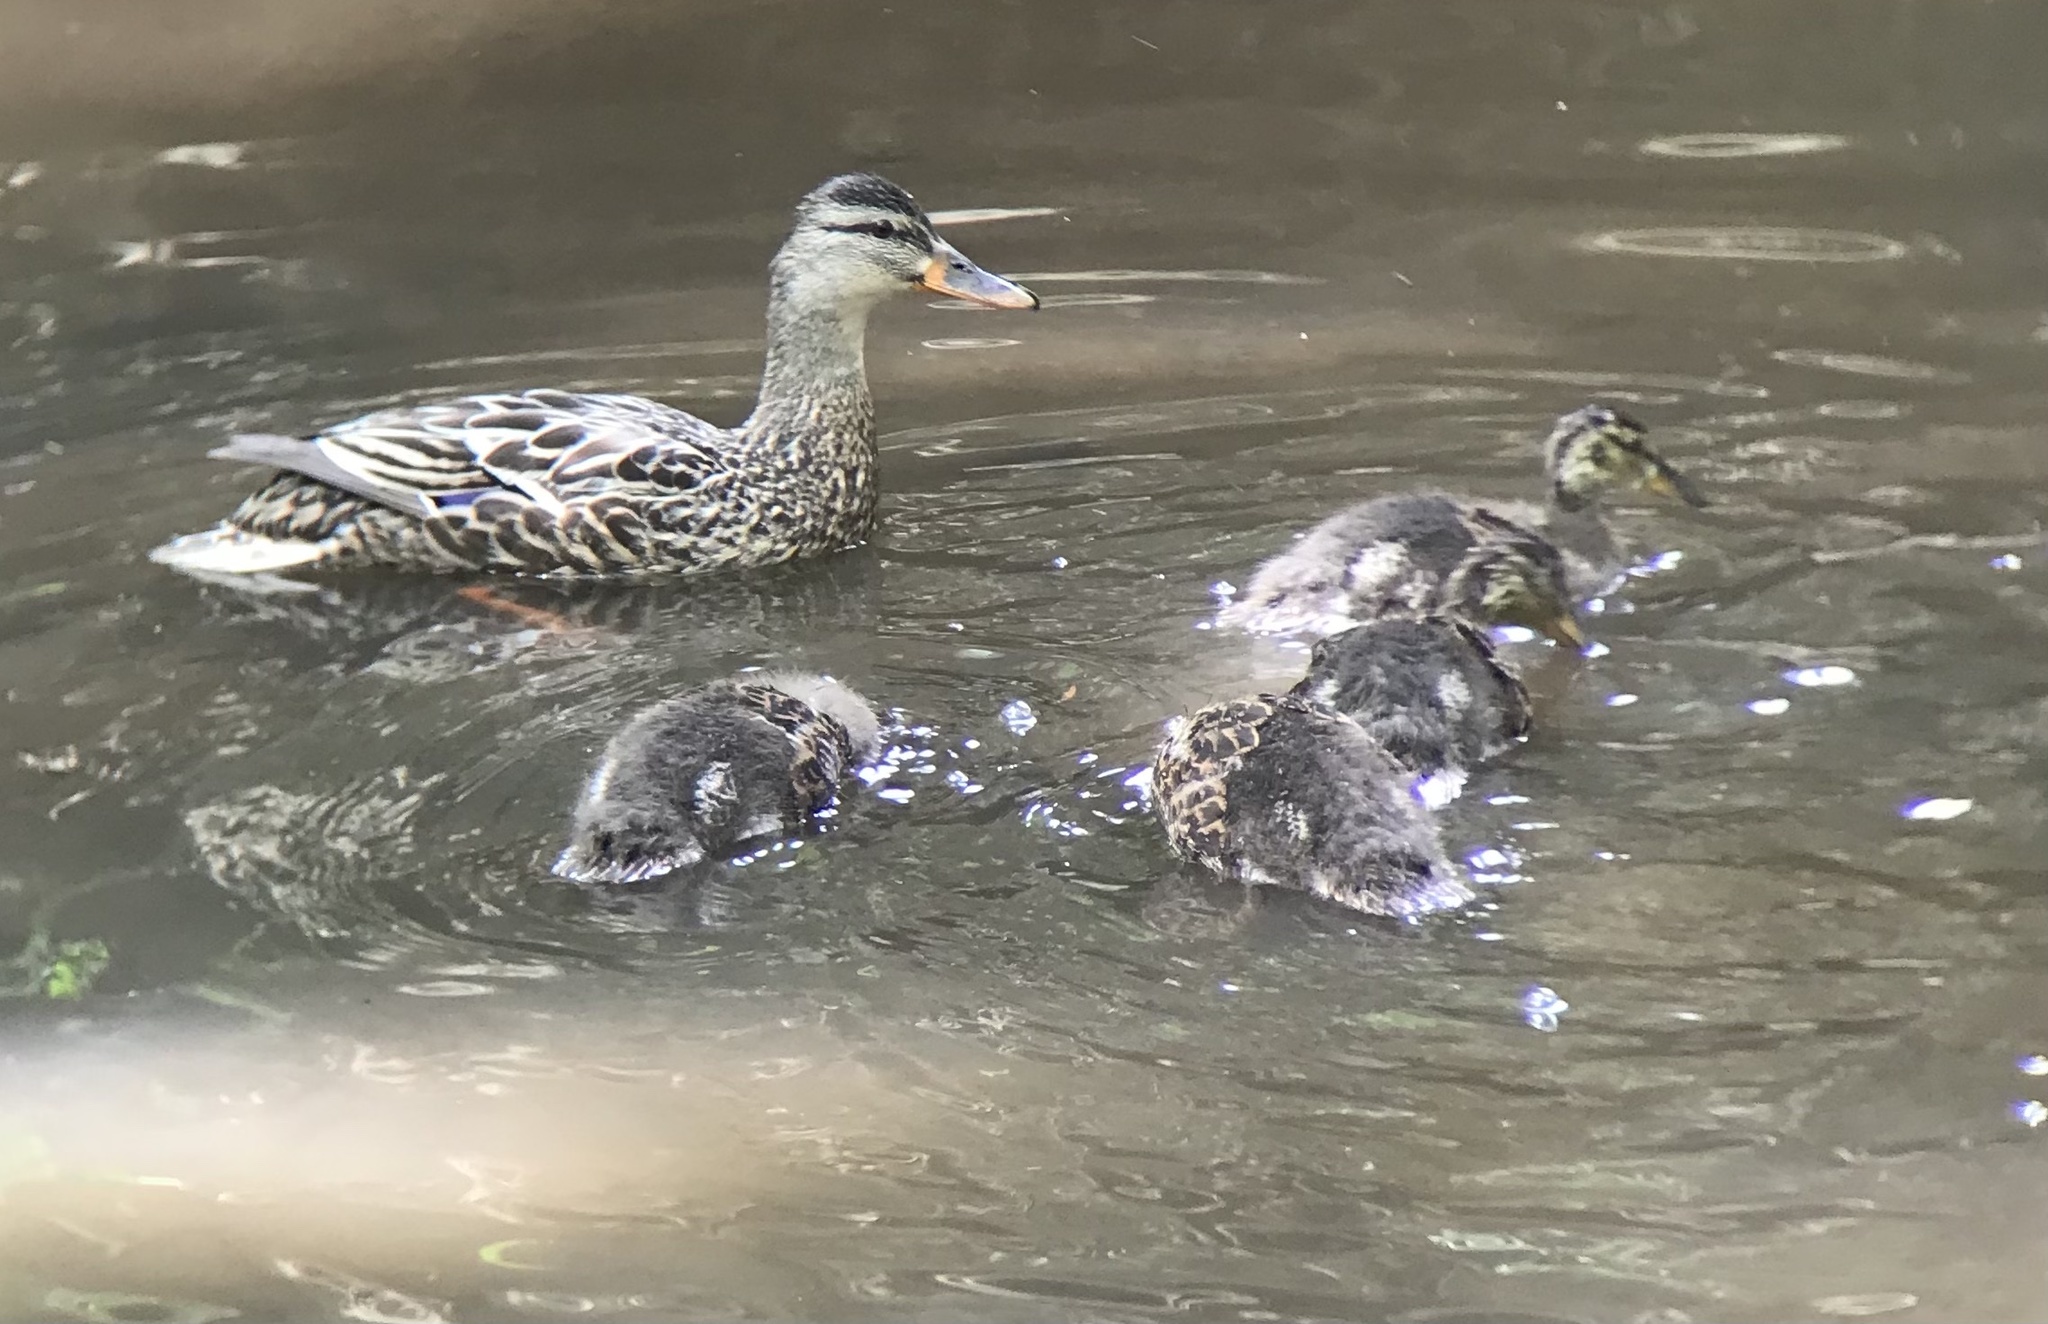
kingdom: Animalia
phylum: Chordata
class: Aves
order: Anseriformes
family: Anatidae
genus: Anas
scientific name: Anas platyrhynchos
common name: Mallard
